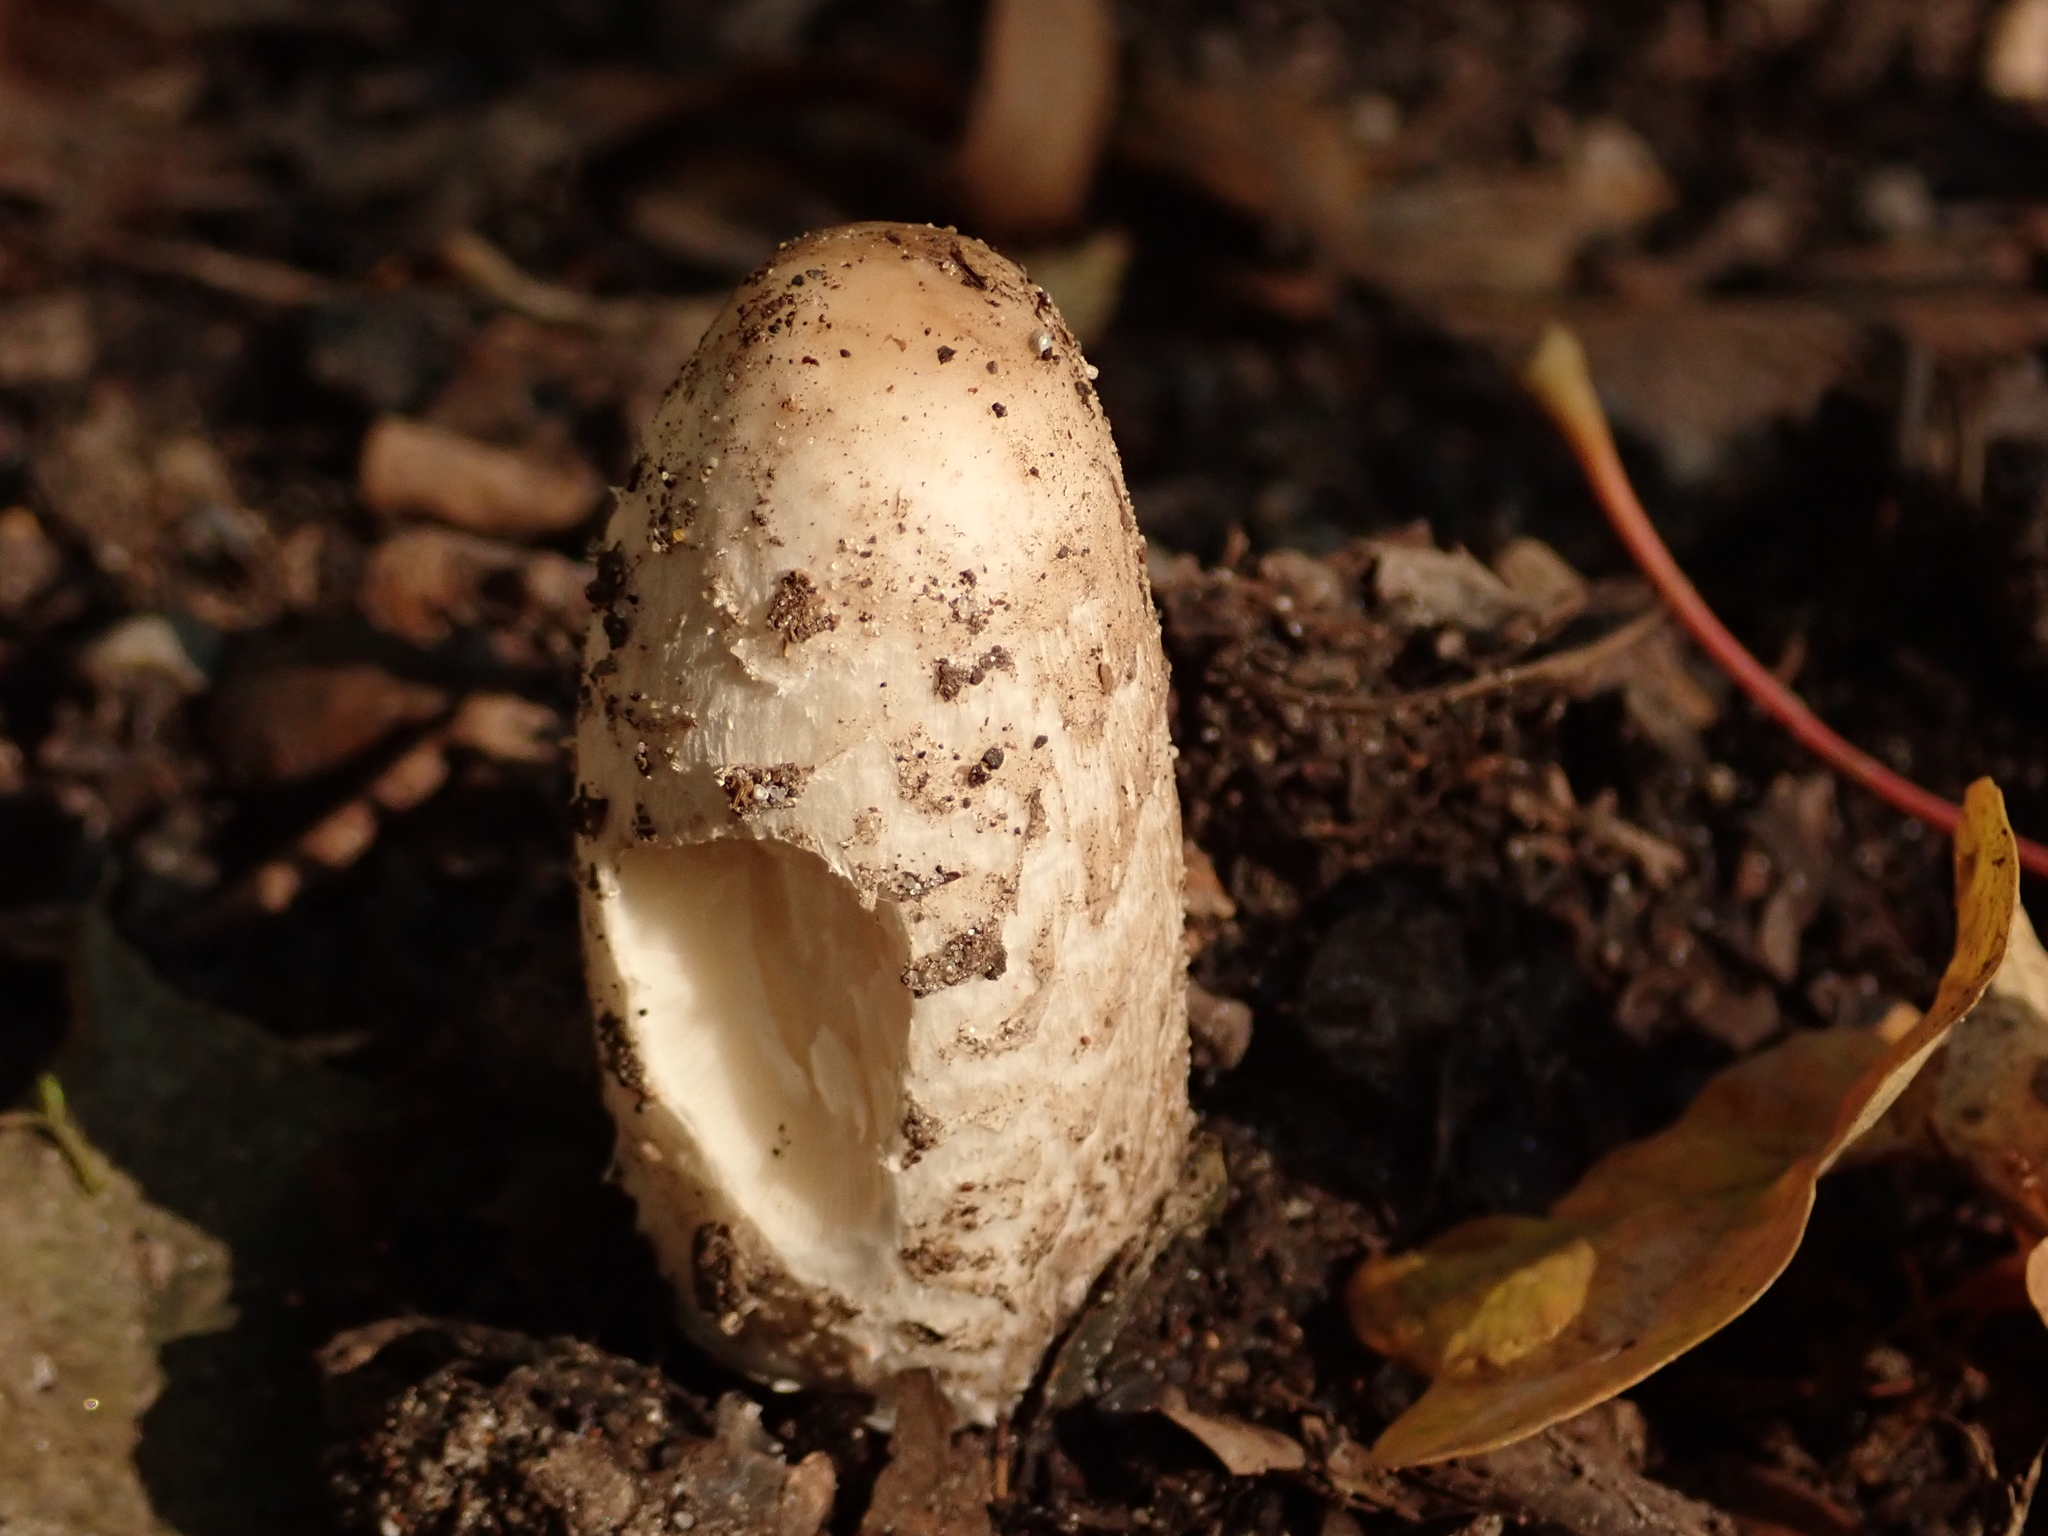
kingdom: Fungi
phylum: Basidiomycota
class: Agaricomycetes
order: Agaricales
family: Agaricaceae
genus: Coprinus
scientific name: Coprinus comatus
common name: Lawyer's wig
